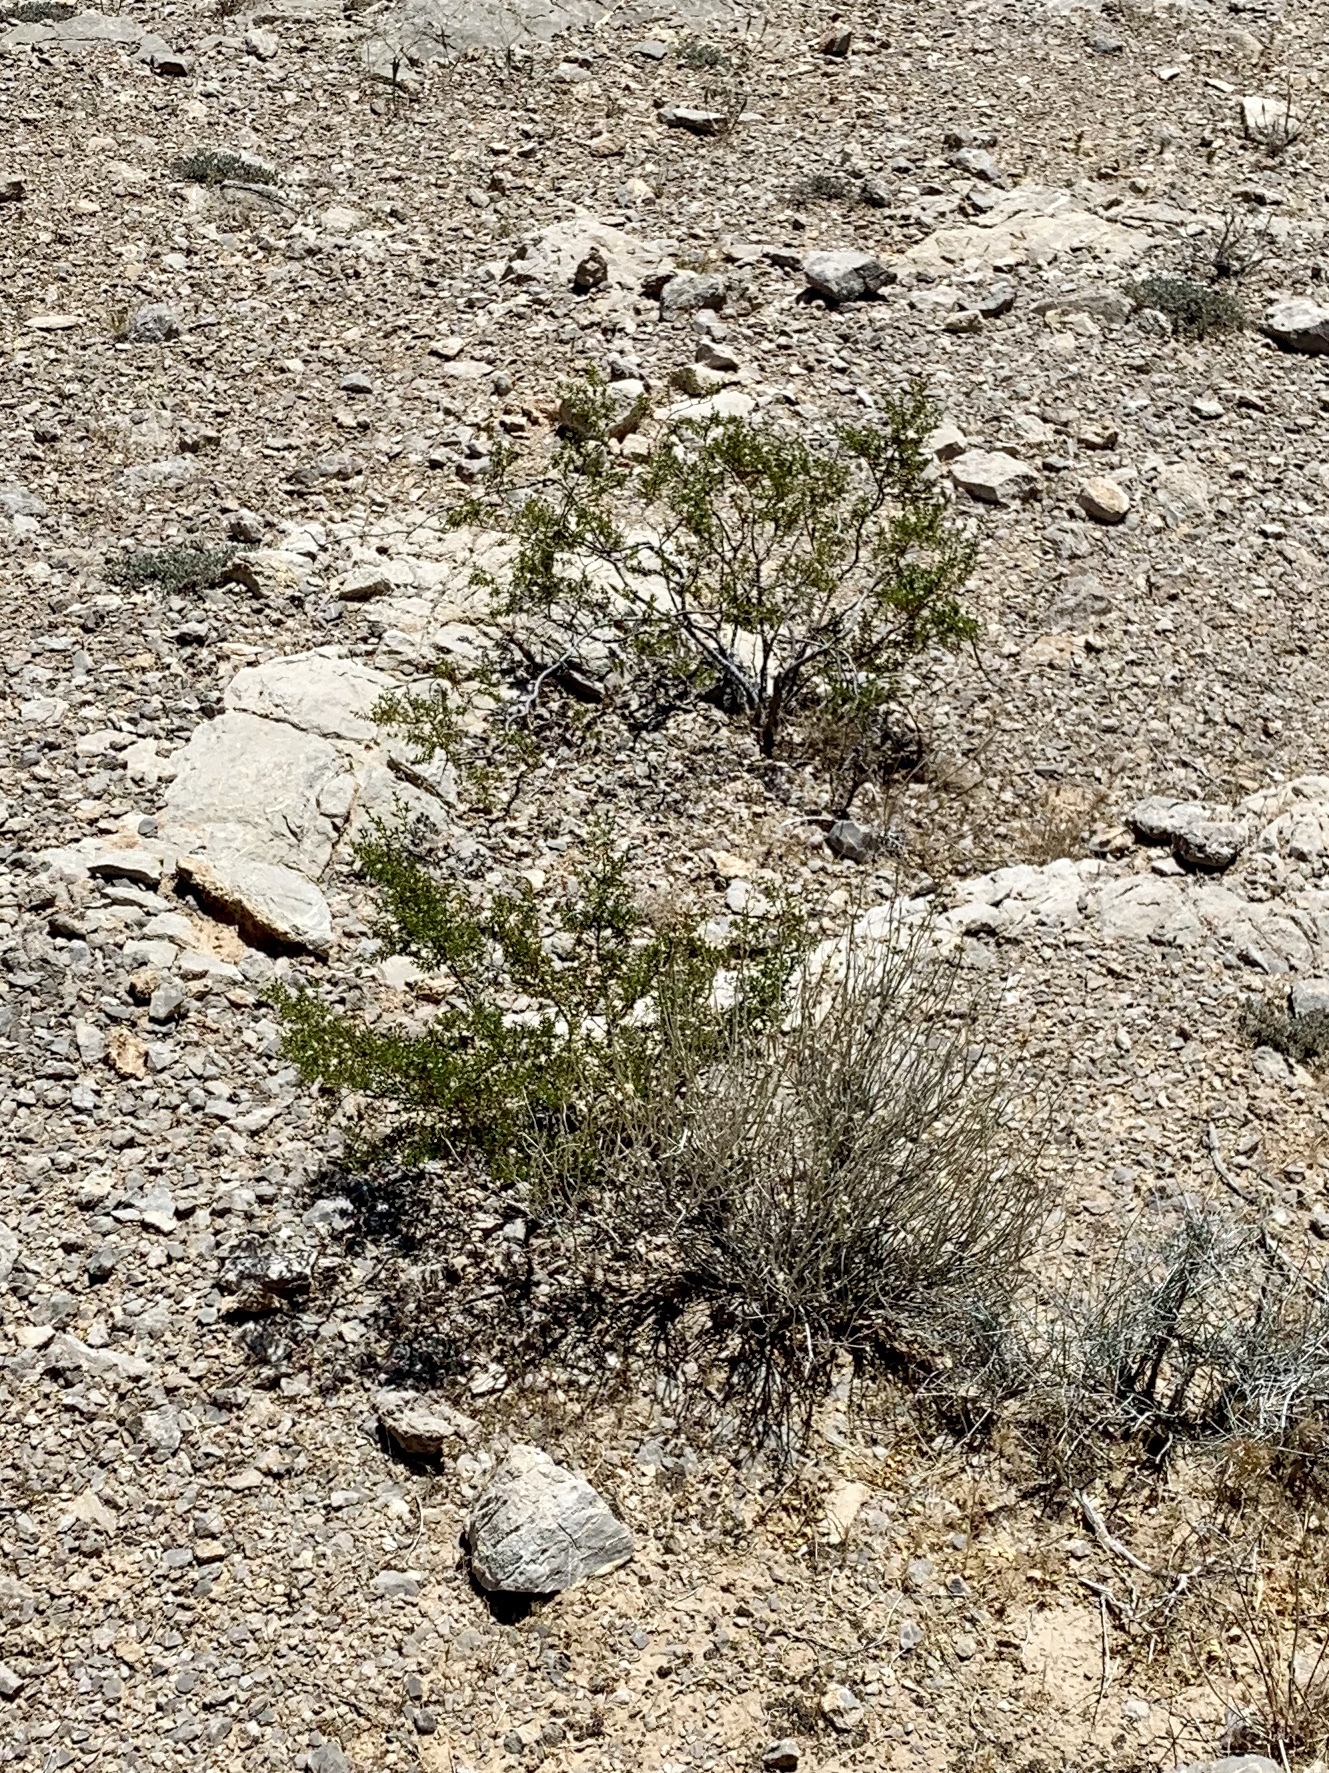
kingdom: Plantae
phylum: Tracheophyta
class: Magnoliopsida
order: Zygophyllales
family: Zygophyllaceae
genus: Larrea
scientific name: Larrea tridentata
